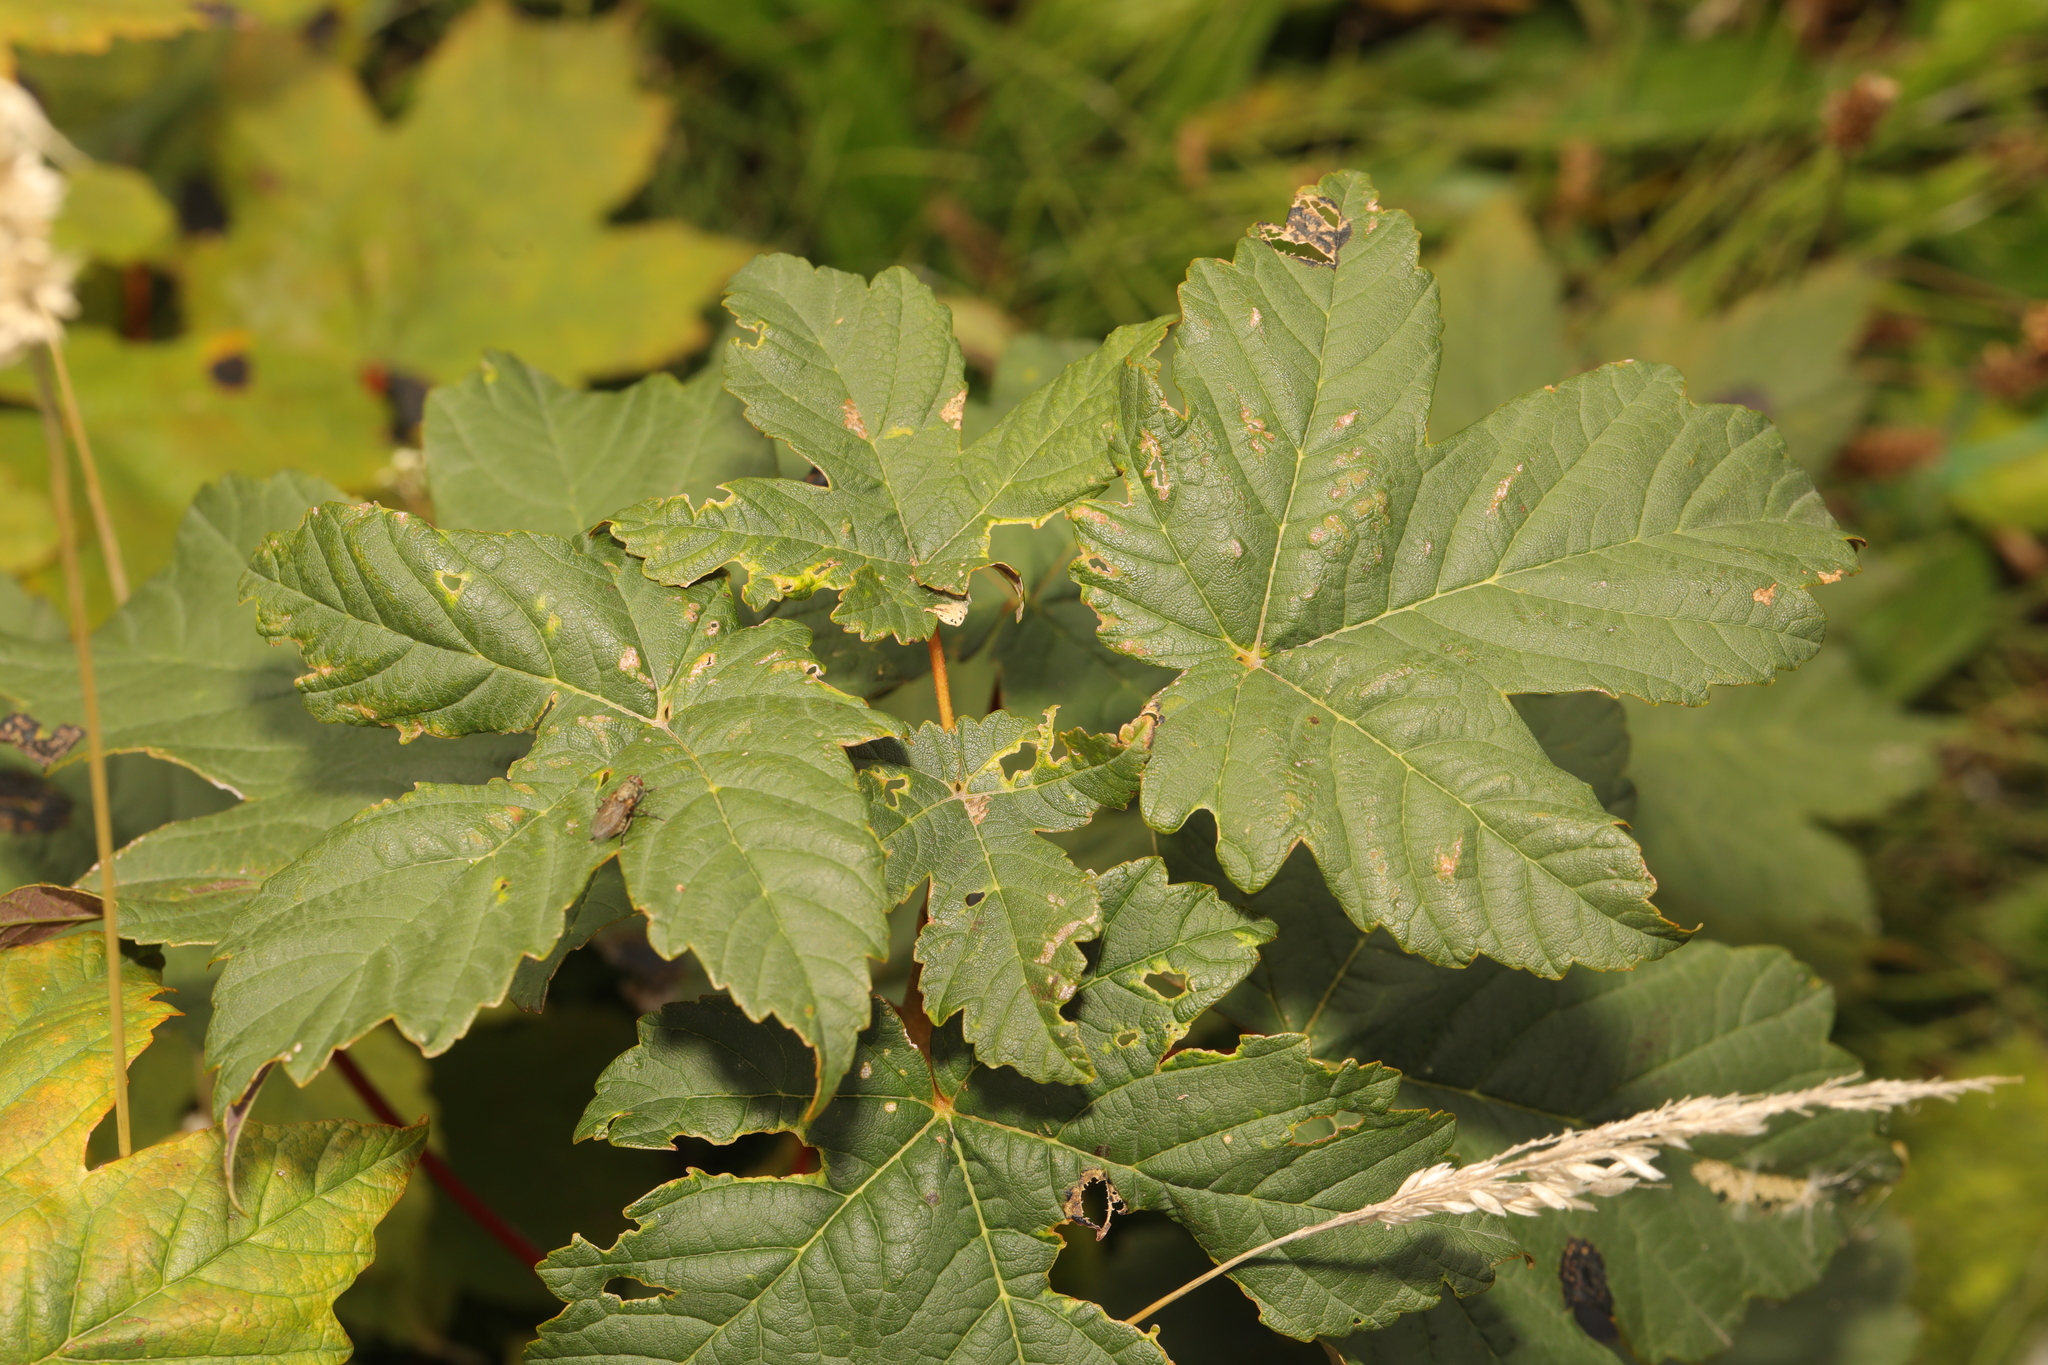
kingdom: Plantae
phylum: Tracheophyta
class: Magnoliopsida
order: Sapindales
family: Sapindaceae
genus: Acer
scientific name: Acer pseudoplatanus
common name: Sycamore
